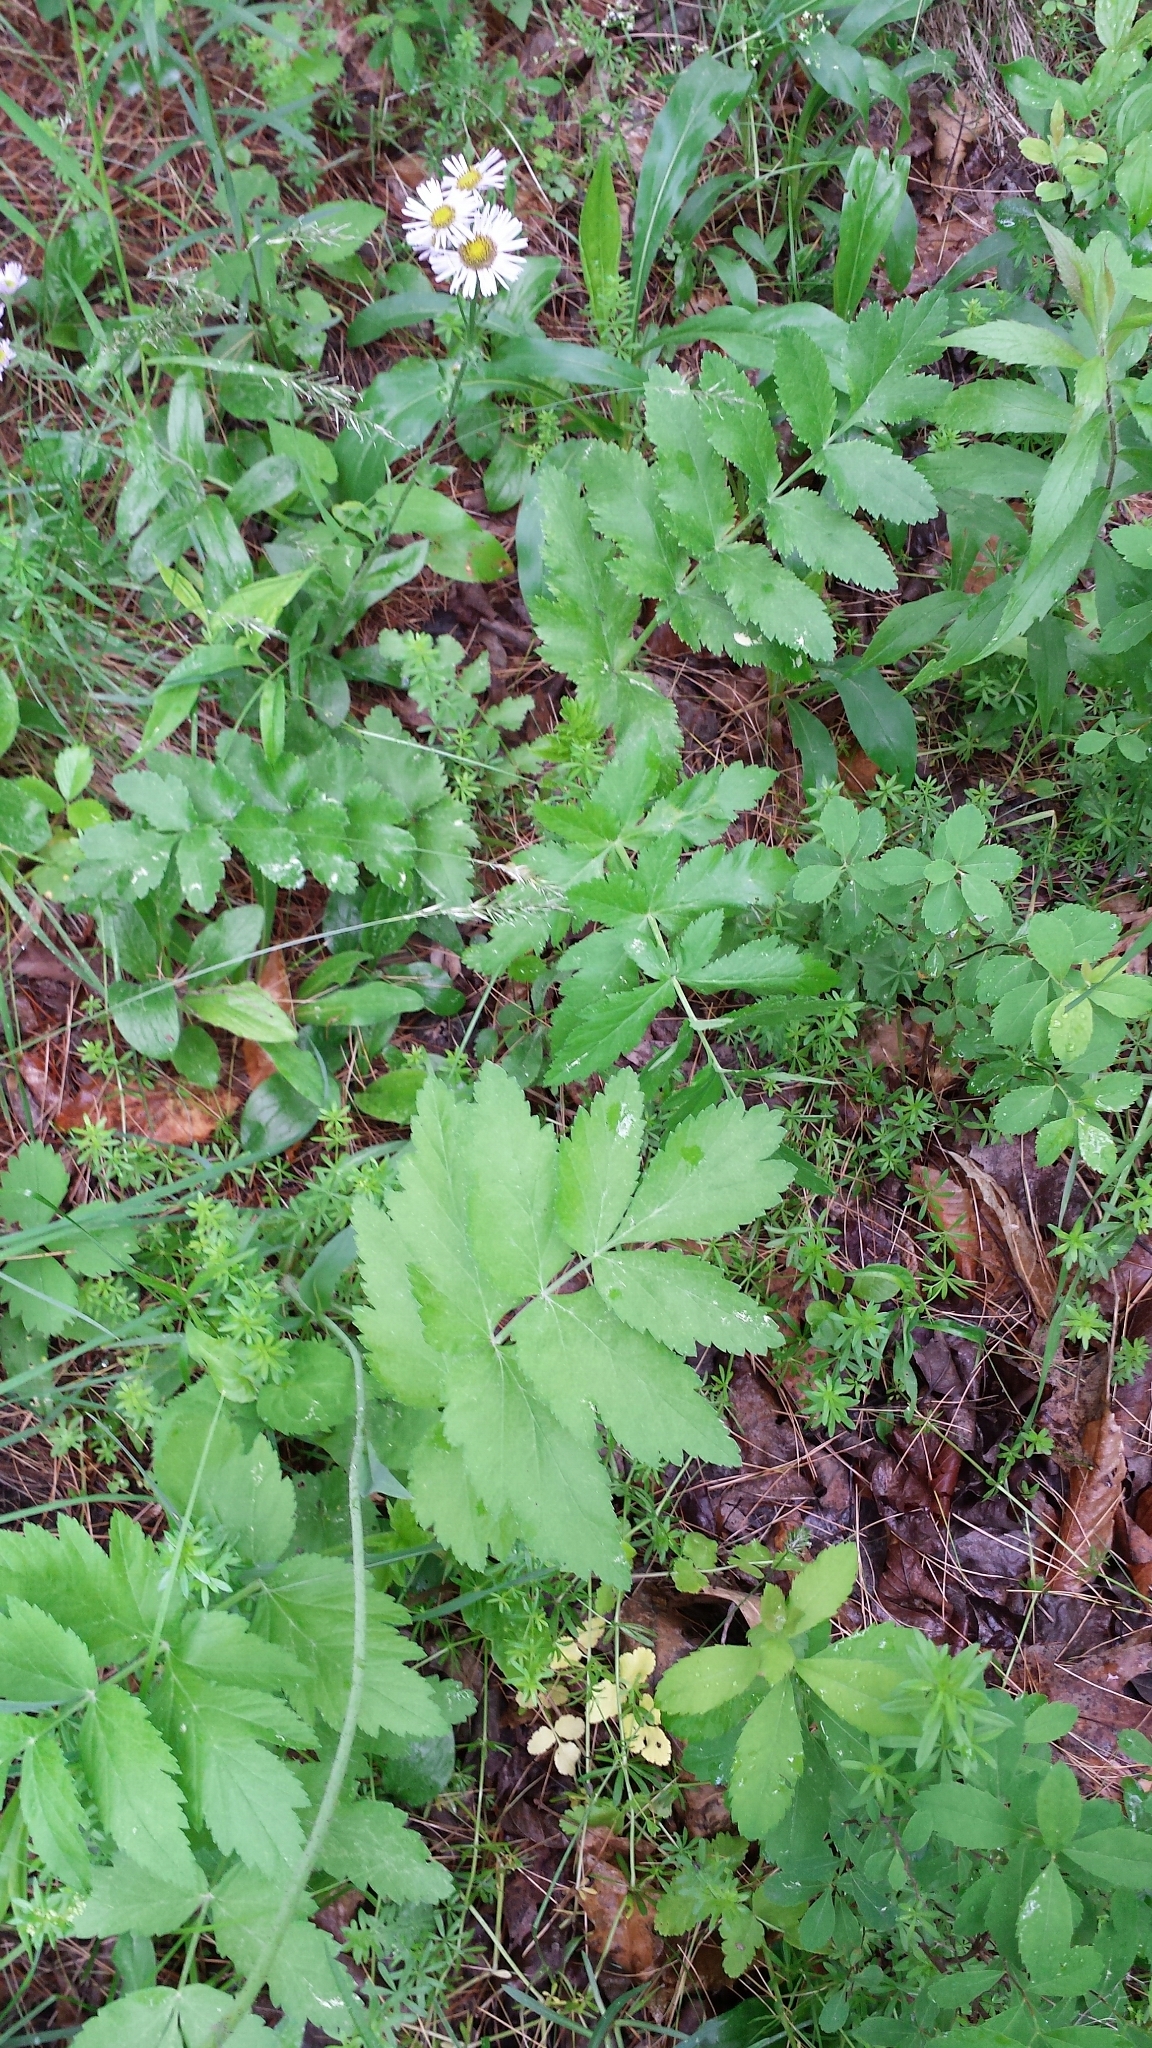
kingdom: Plantae
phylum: Tracheophyta
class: Magnoliopsida
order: Apiales
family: Apiaceae
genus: Pastinaca
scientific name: Pastinaca sativa
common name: Wild parsnip
